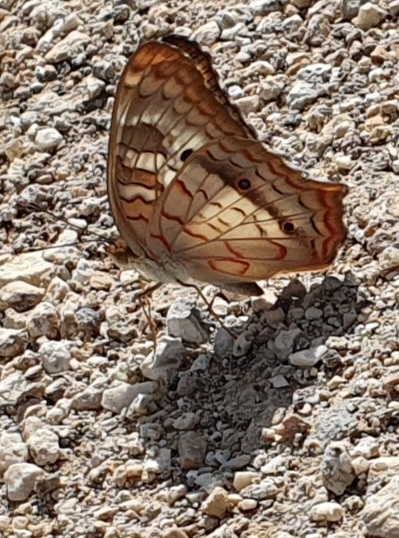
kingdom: Animalia
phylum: Arthropoda
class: Insecta
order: Lepidoptera
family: Nymphalidae
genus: Anartia
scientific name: Anartia jatrophae
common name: White peacock
